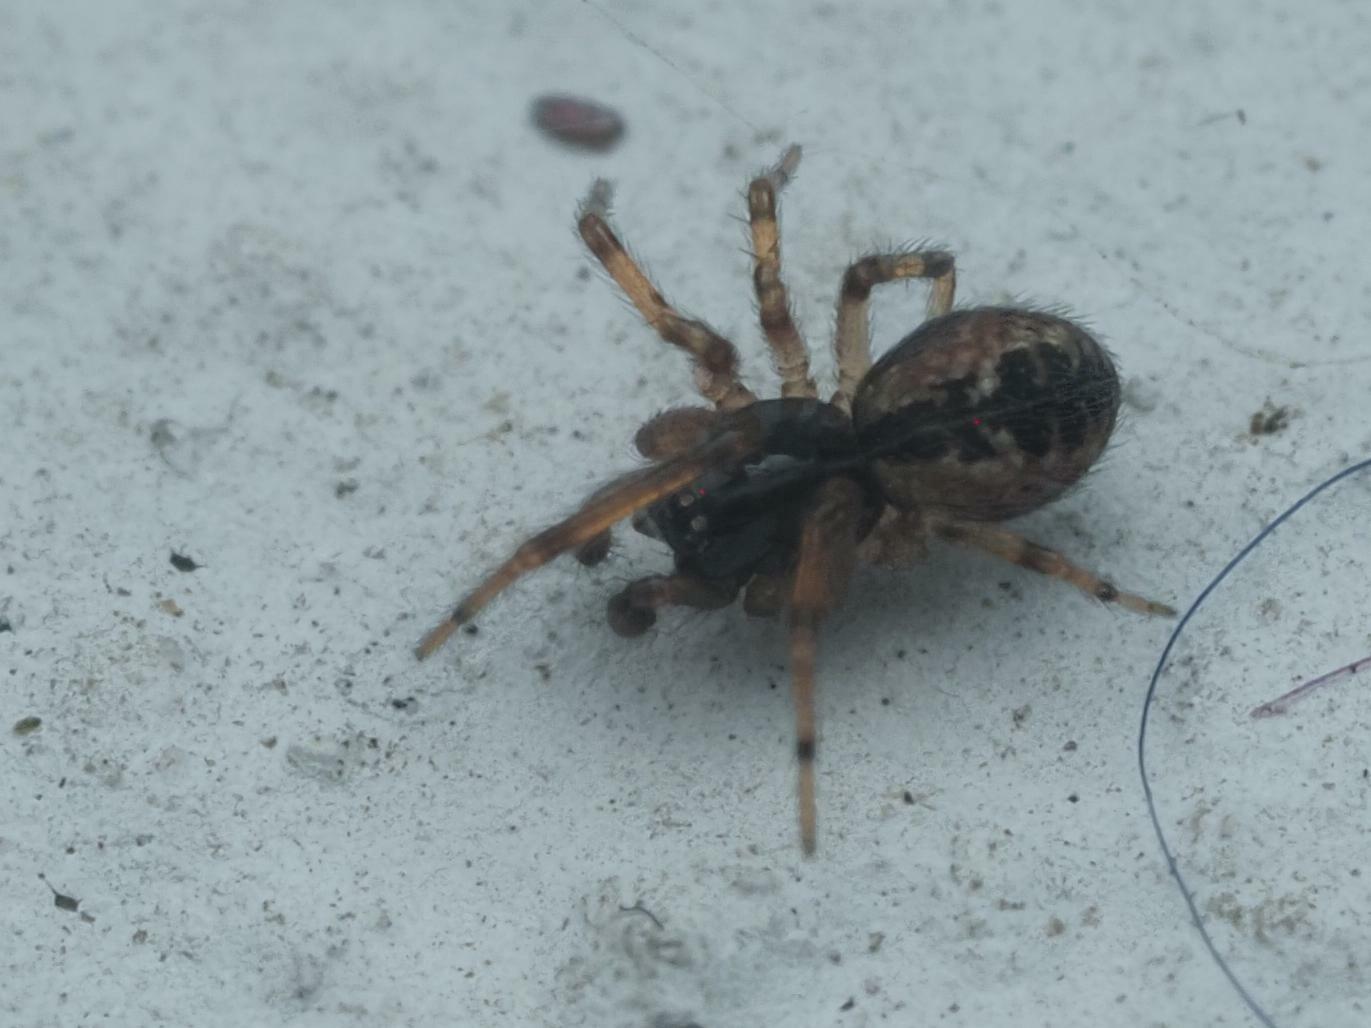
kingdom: Animalia
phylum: Arthropoda
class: Arachnida
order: Araneae
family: Dictynidae
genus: Lathys
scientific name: Lathys humilis
